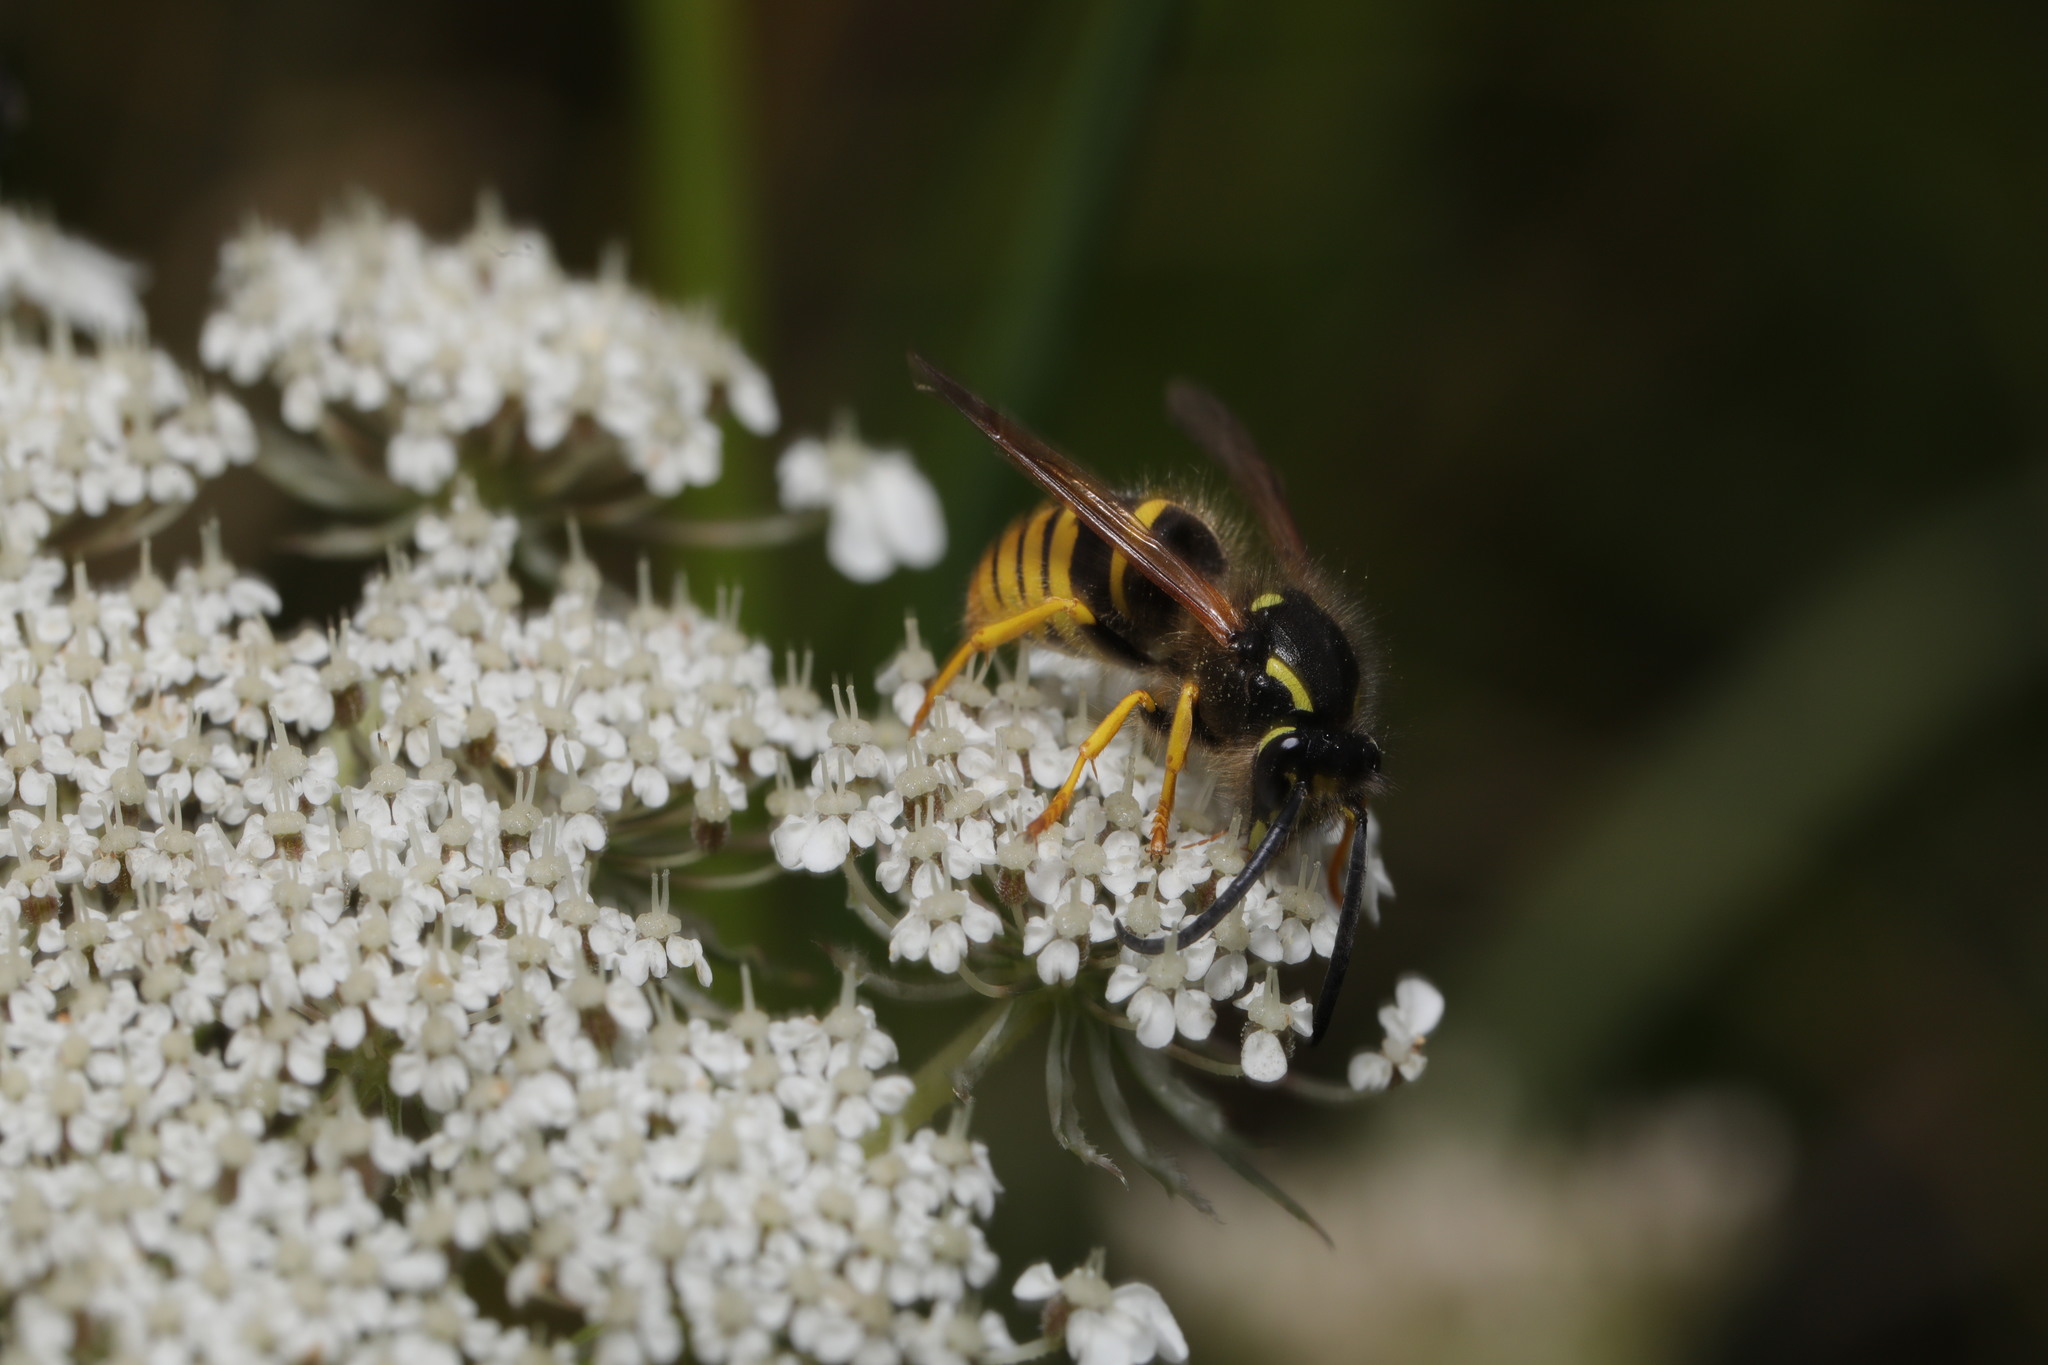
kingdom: Animalia
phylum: Arthropoda
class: Insecta
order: Hymenoptera
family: Vespidae
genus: Dolichovespula
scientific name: Dolichovespula sylvestris
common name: Tree wasp
